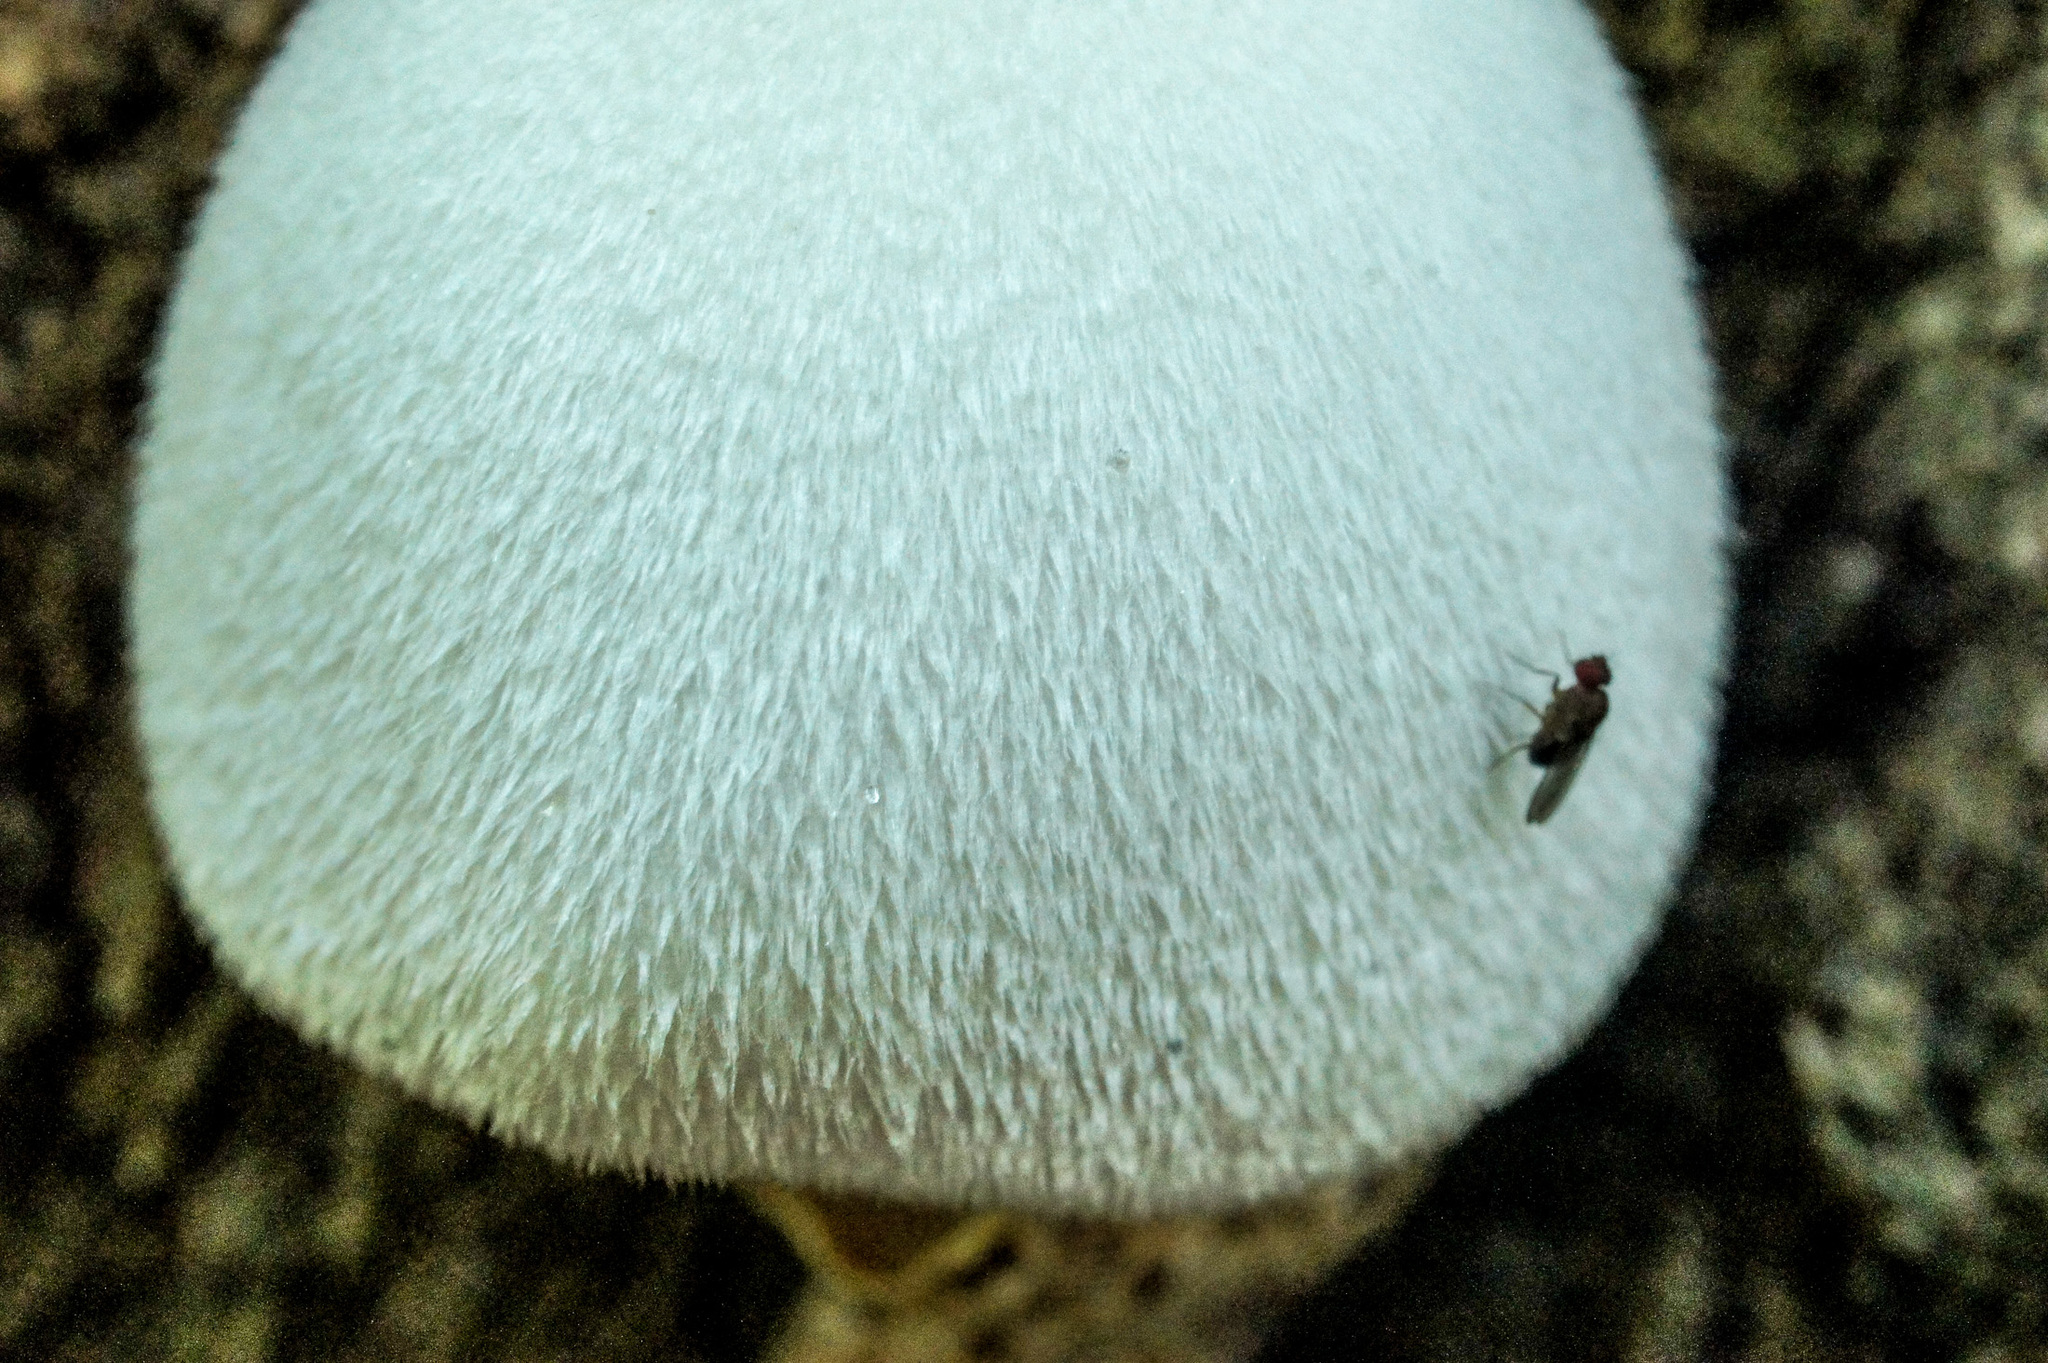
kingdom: Fungi
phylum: Basidiomycota
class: Agaricomycetes
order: Agaricales
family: Pluteaceae
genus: Volvariella
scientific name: Volvariella bombycina
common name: Silky rosegill
